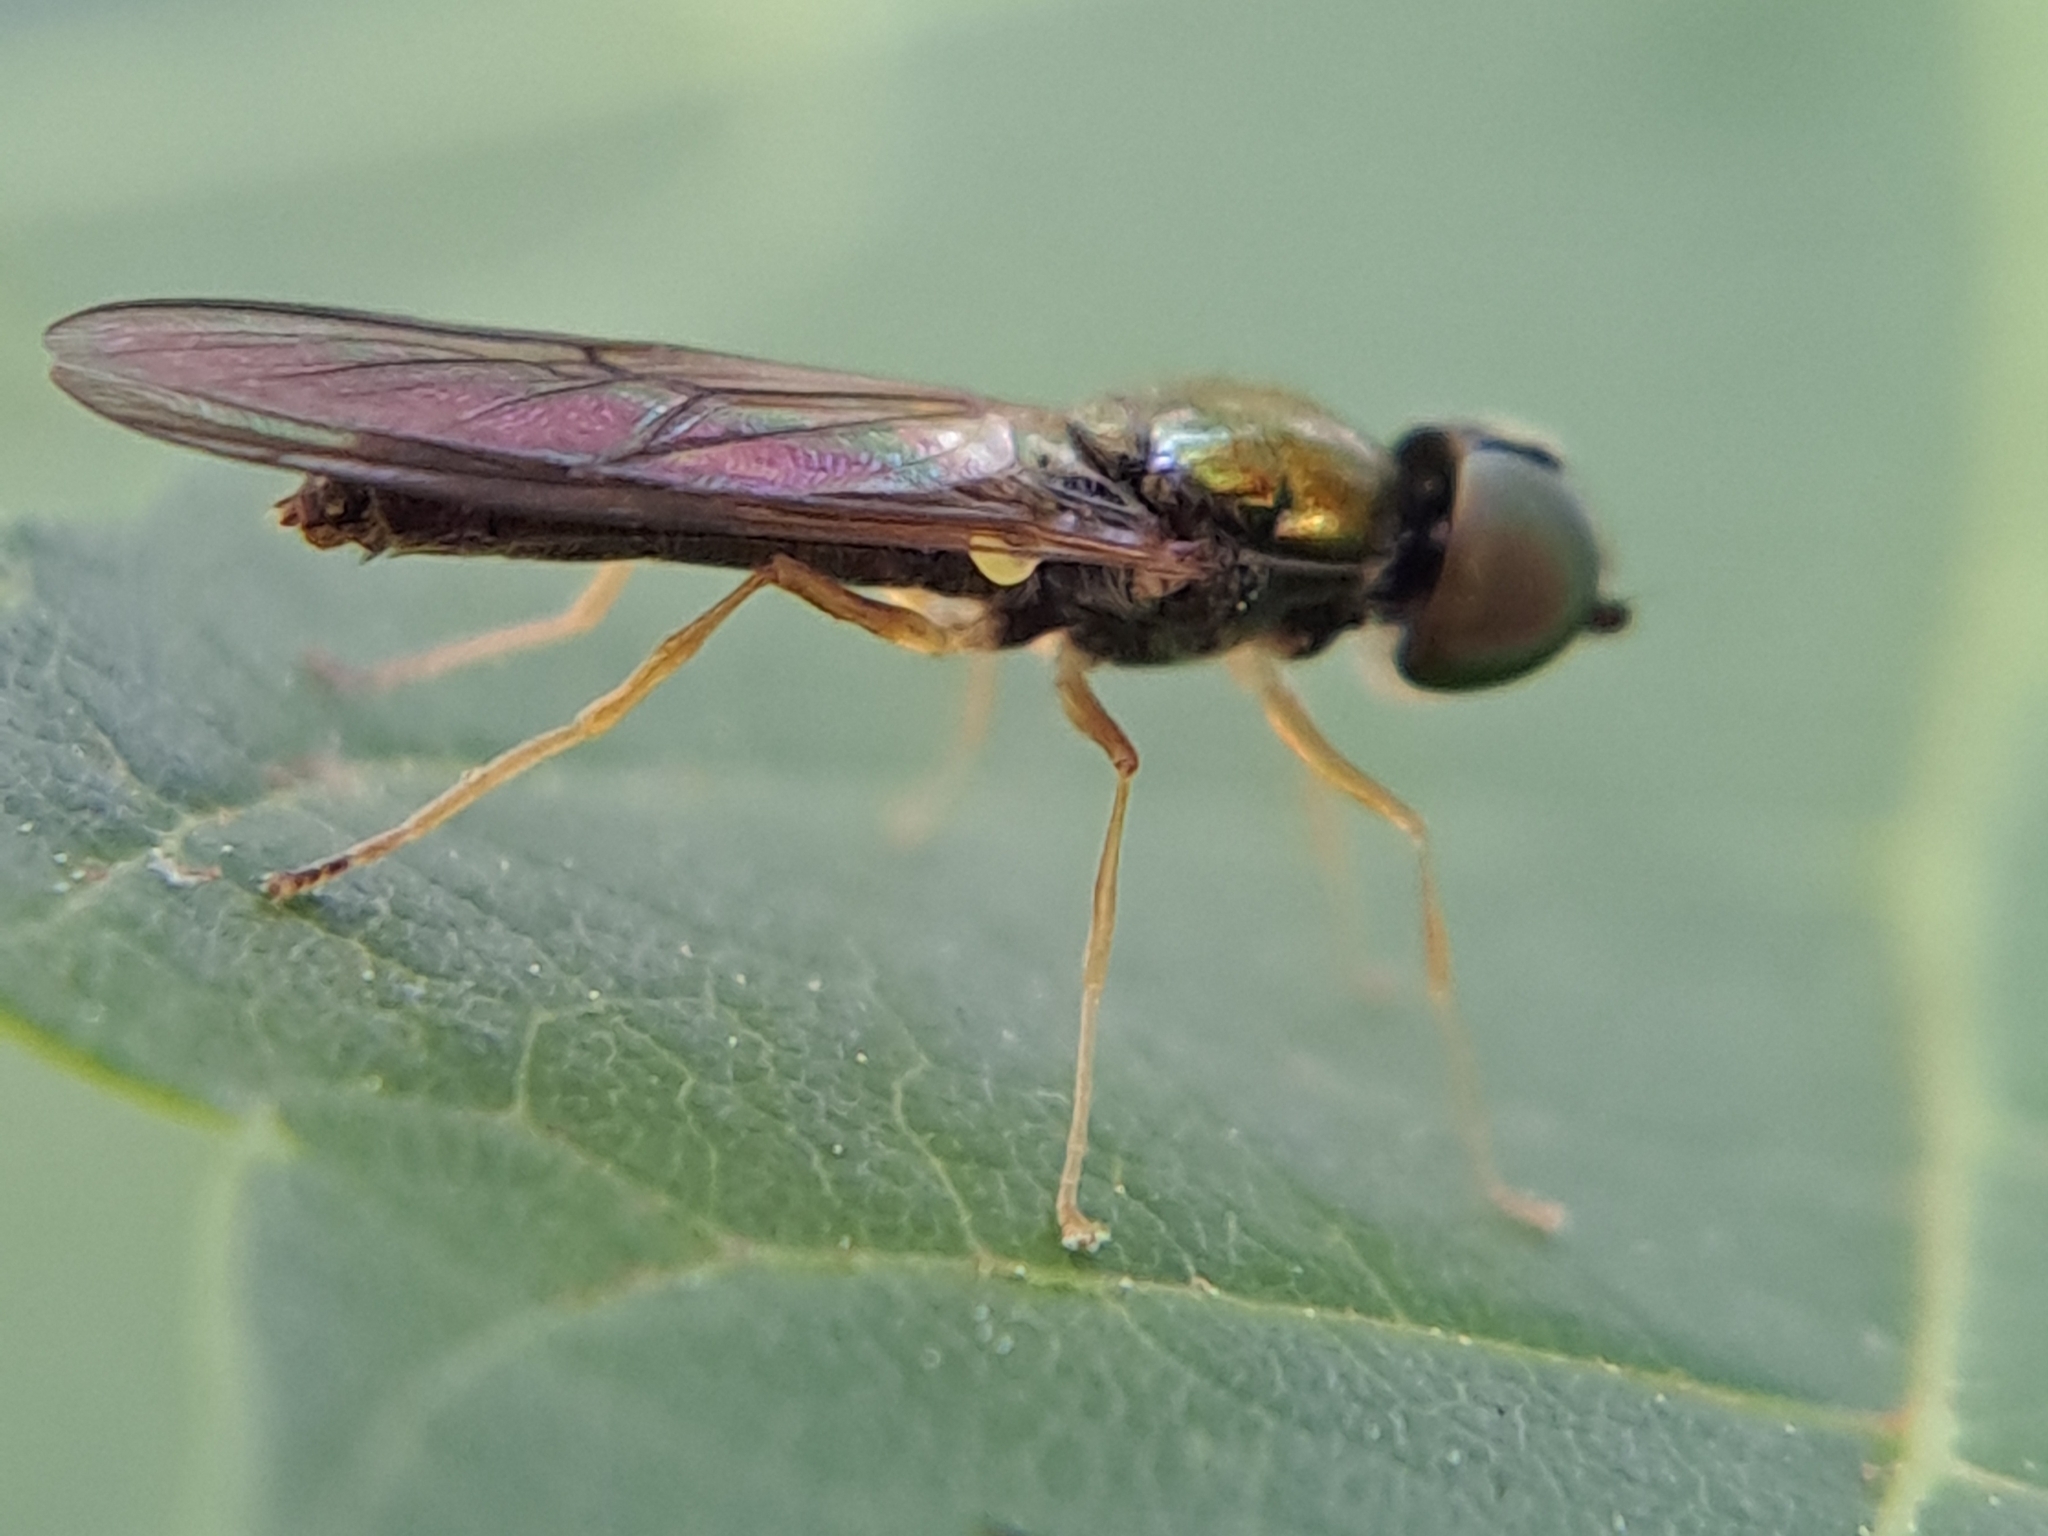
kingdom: Animalia
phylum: Arthropoda
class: Insecta
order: Diptera
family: Stratiomyidae
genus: Sargus
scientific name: Sargus decorus
